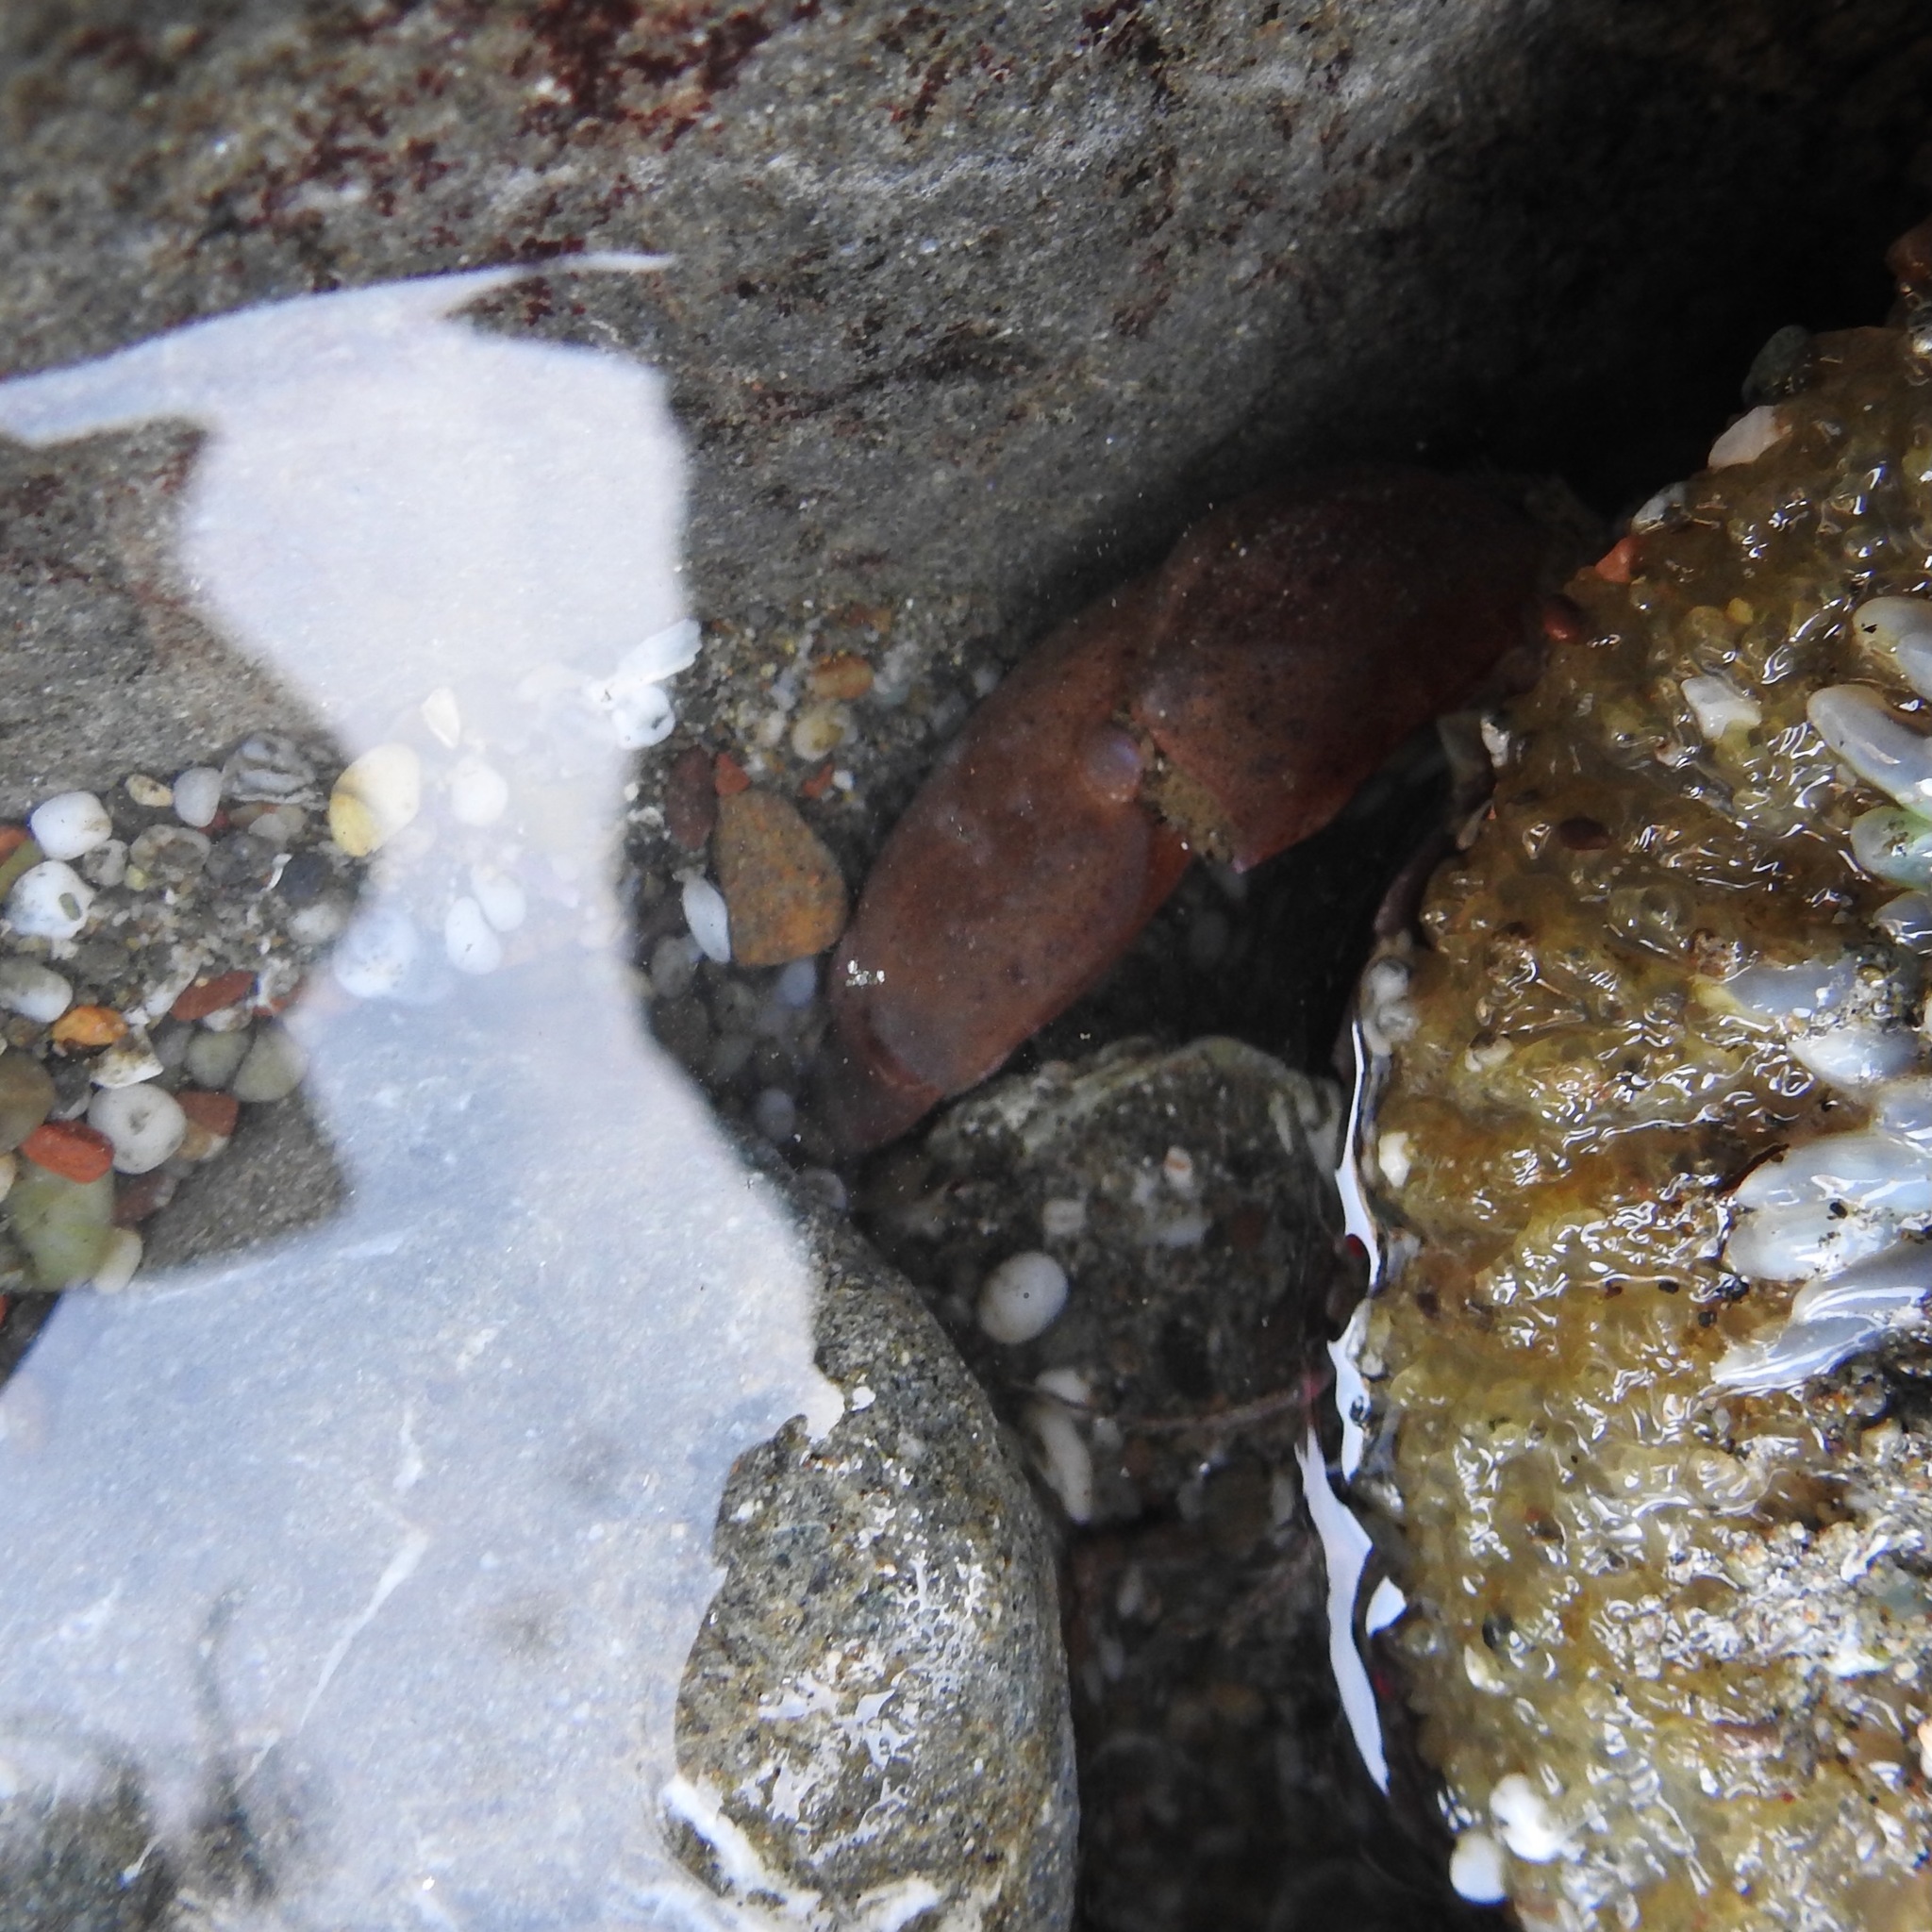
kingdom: Animalia
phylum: Arthropoda
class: Malacostraca
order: Decapoda
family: Cancridae
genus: Romaleon
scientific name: Romaleon antennarium
